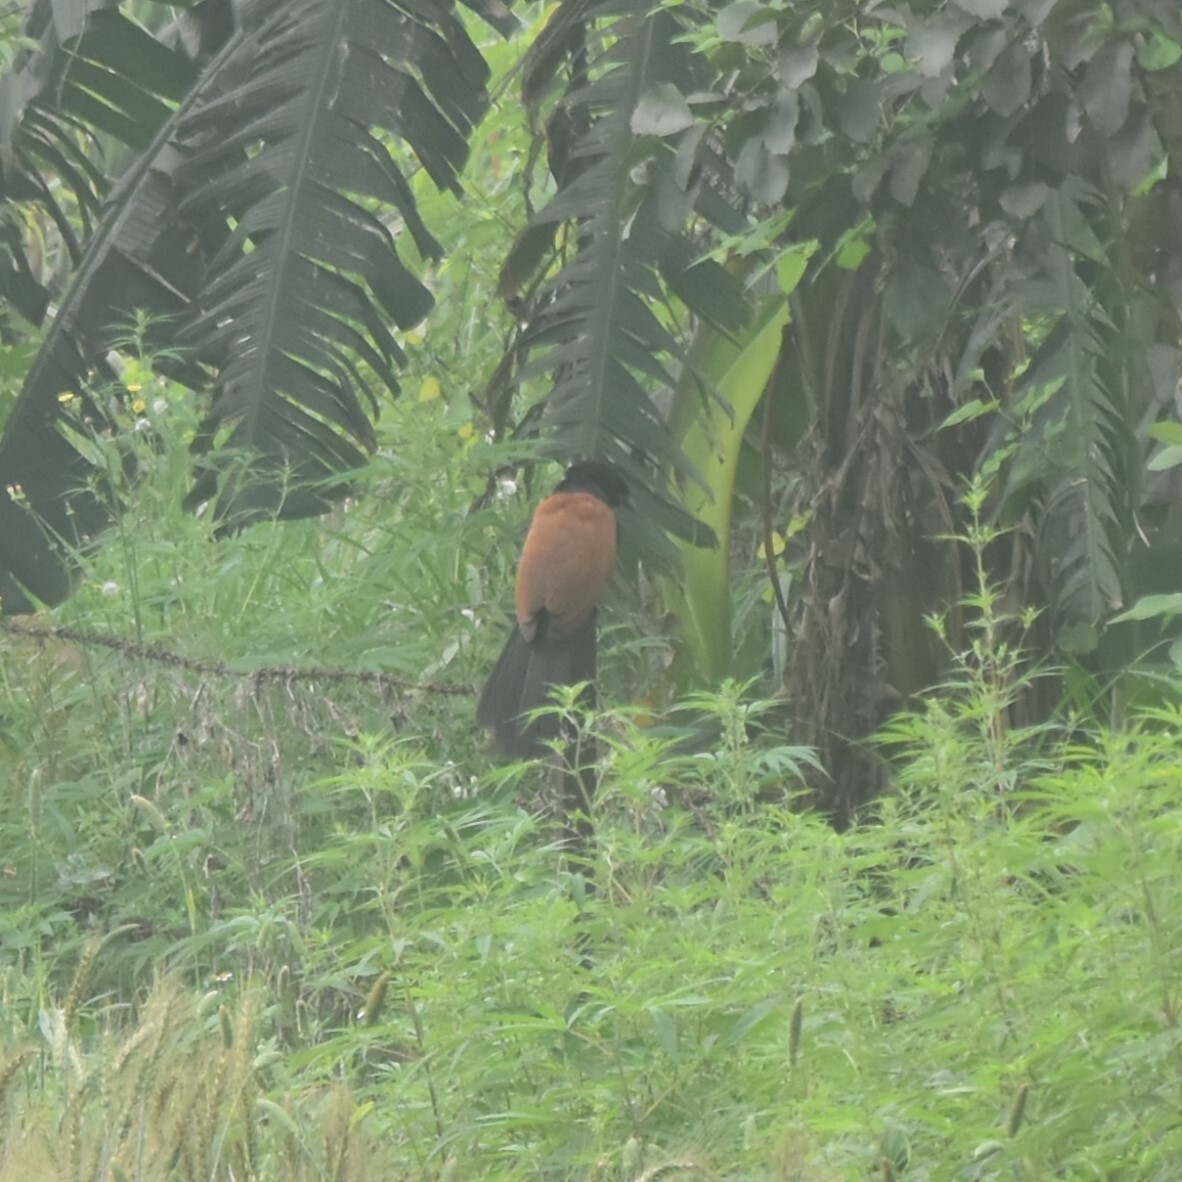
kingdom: Animalia
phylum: Chordata
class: Aves
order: Cuculiformes
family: Cuculidae
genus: Centropus
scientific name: Centropus sinensis
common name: Greater coucal
